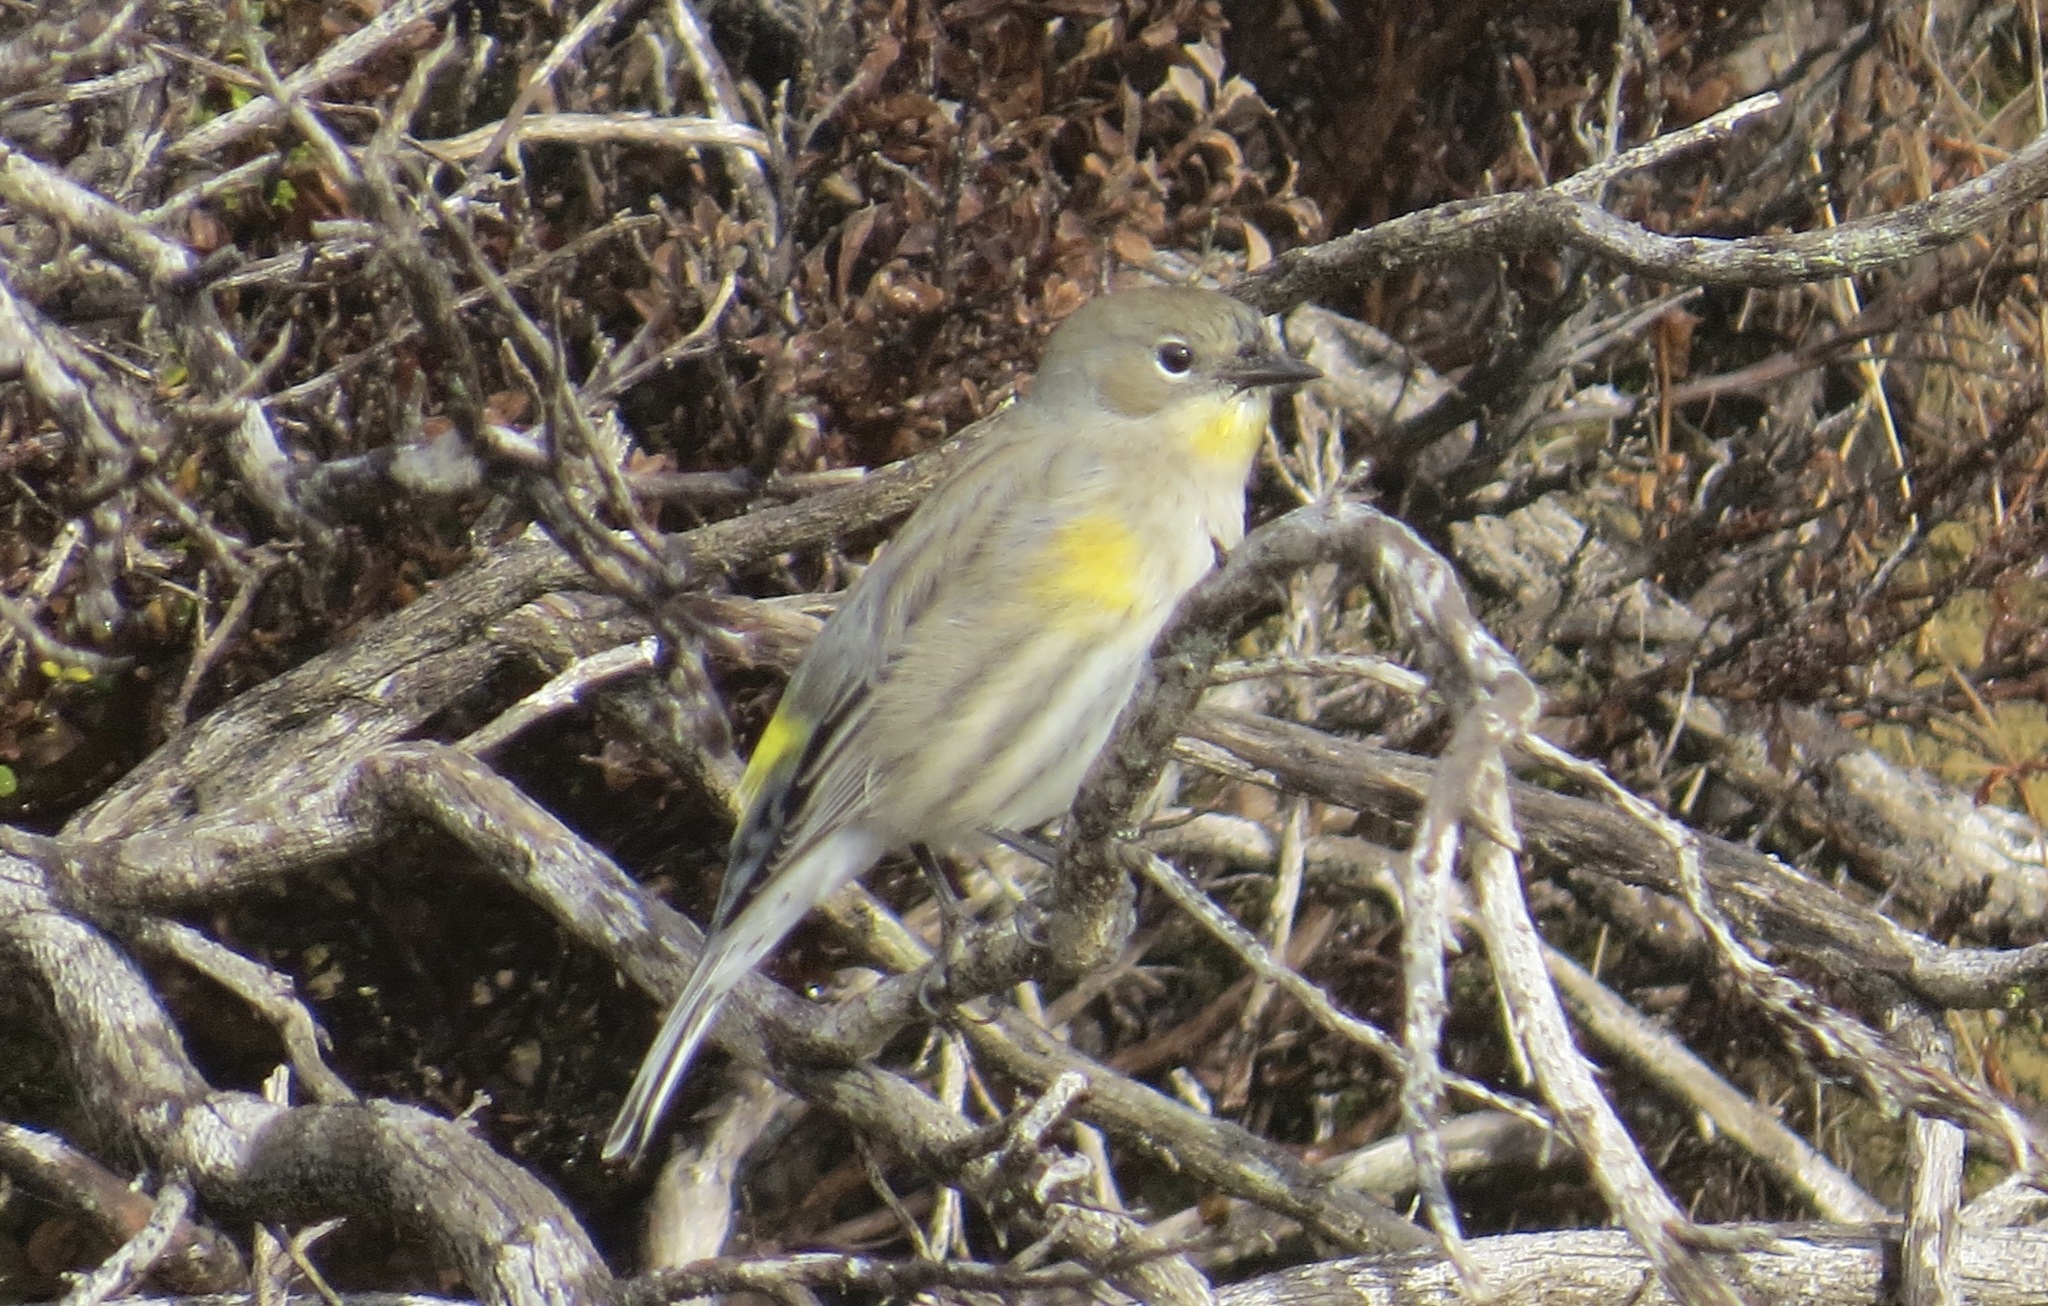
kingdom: Animalia
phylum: Chordata
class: Aves
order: Passeriformes
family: Parulidae
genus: Setophaga
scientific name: Setophaga auduboni
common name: Audubon's warbler
